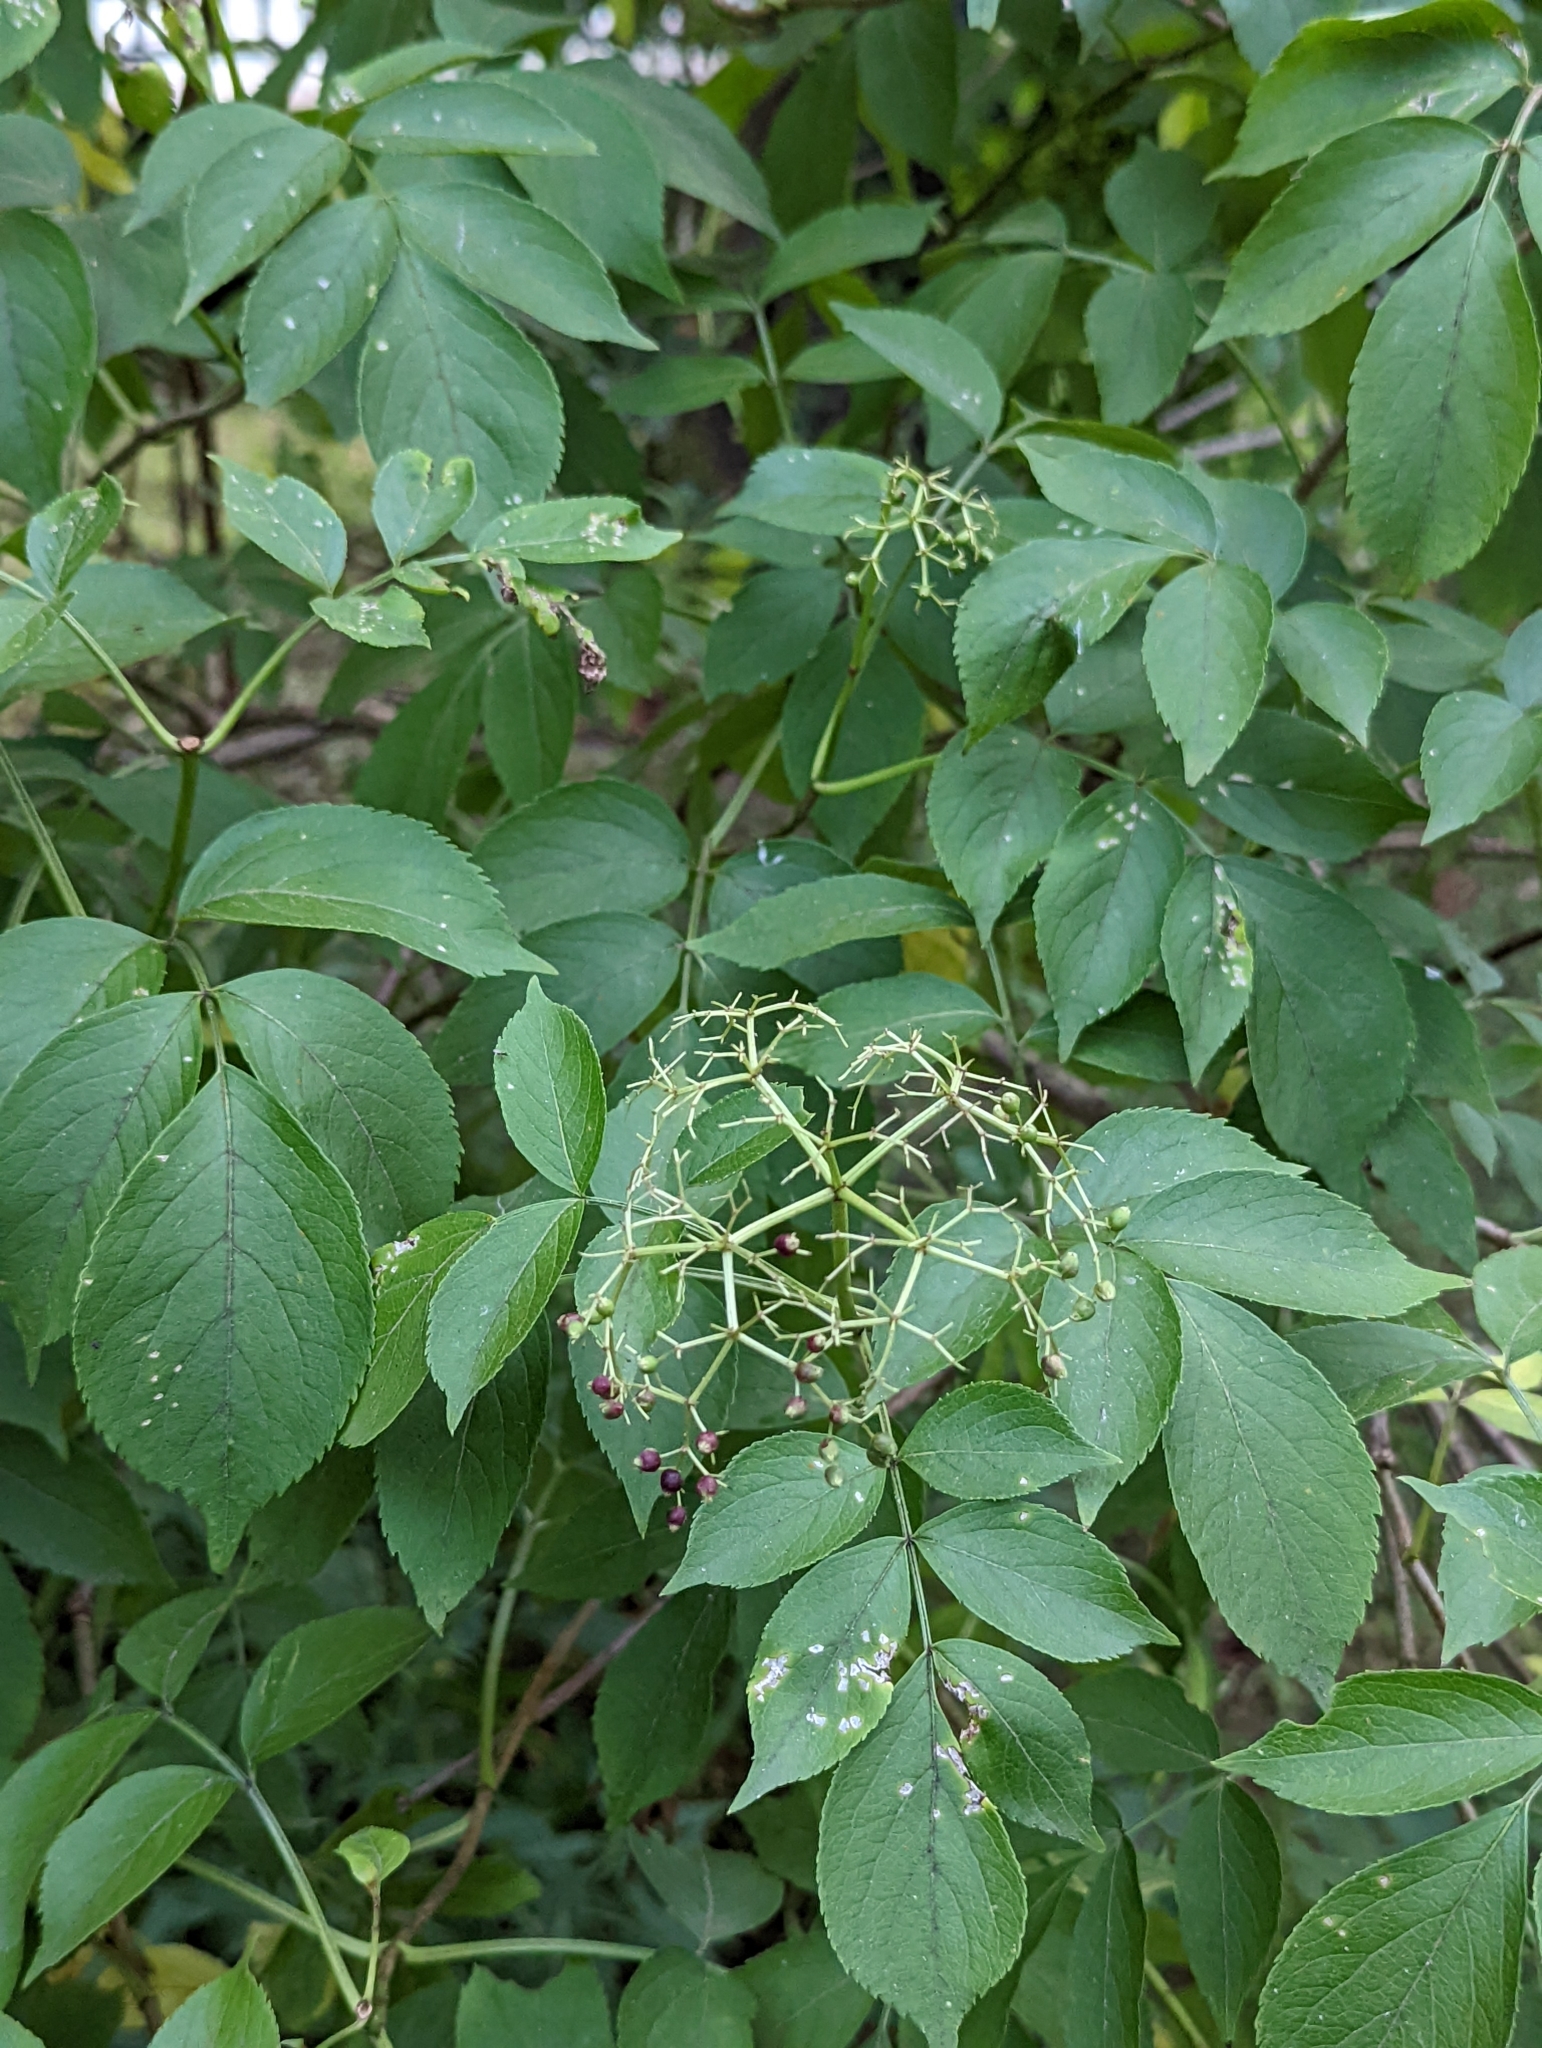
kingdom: Plantae
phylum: Tracheophyta
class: Magnoliopsida
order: Dipsacales
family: Viburnaceae
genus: Sambucus
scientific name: Sambucus canadensis
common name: American elder
